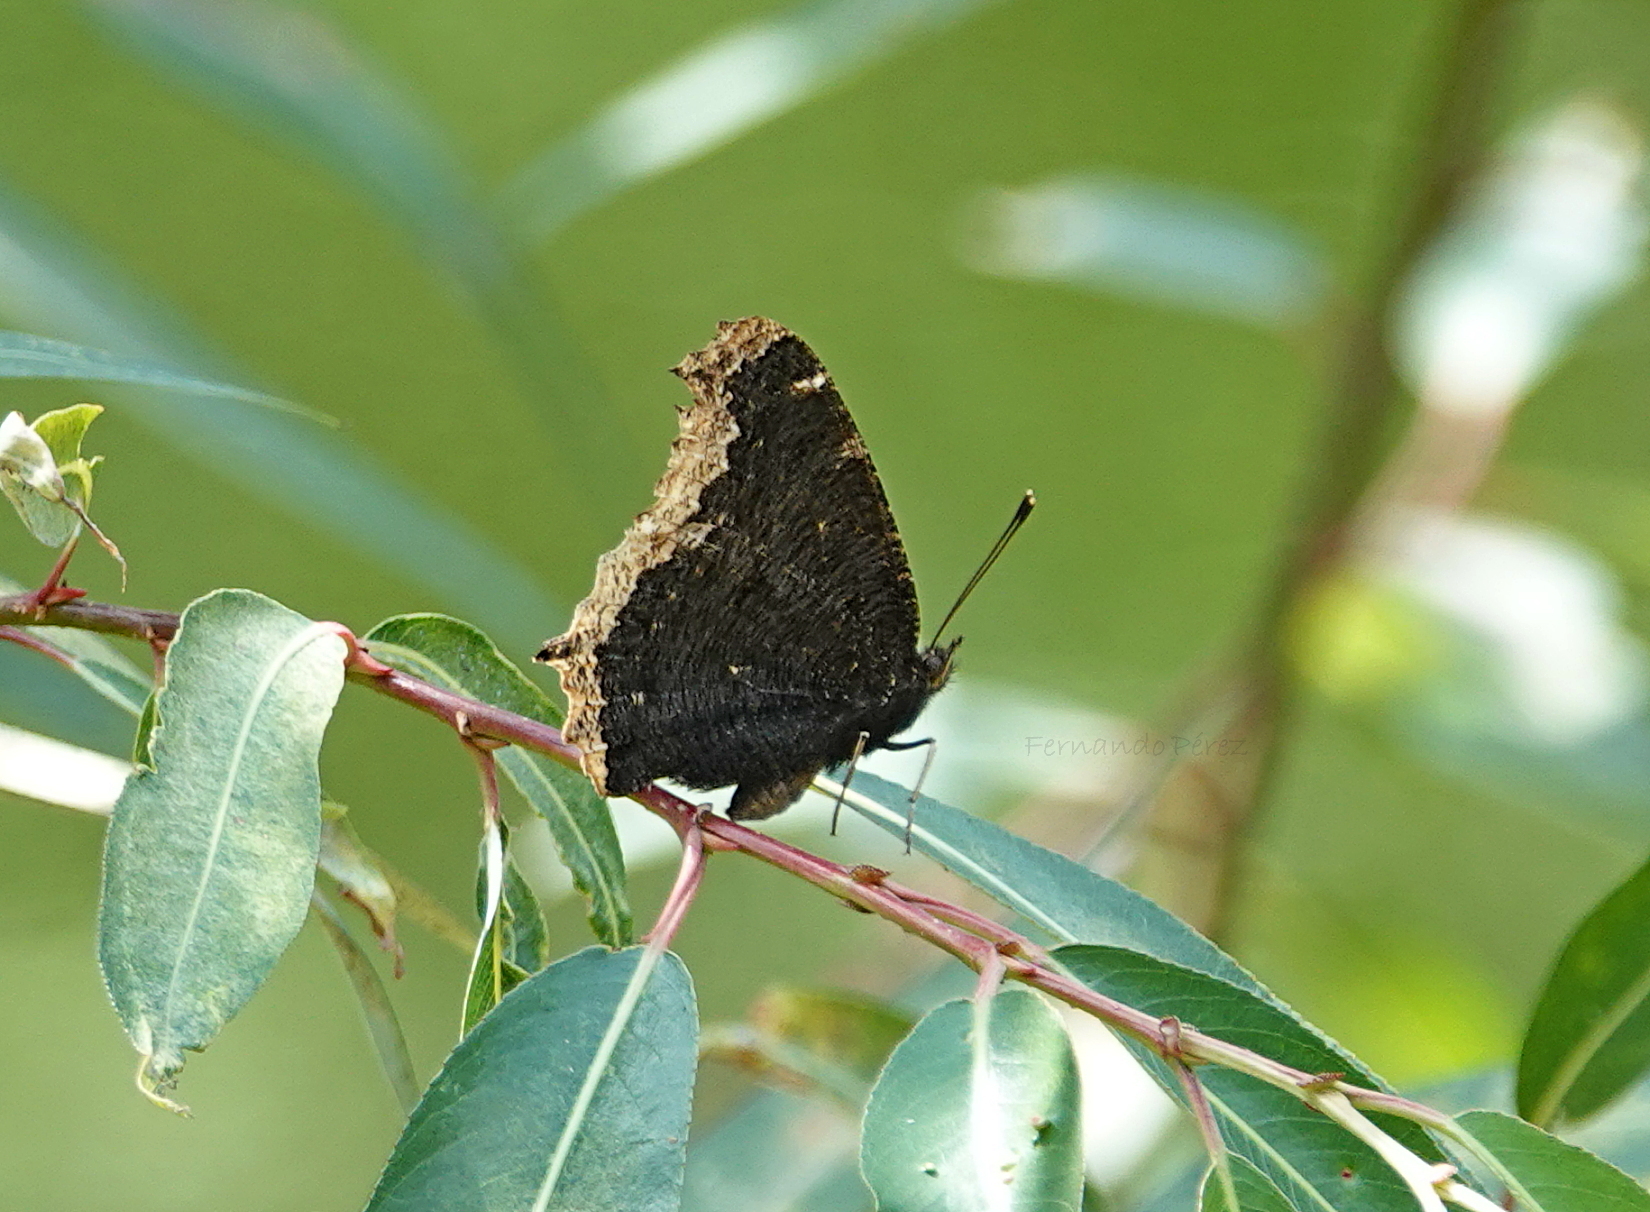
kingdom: Animalia
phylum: Arthropoda
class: Insecta
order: Lepidoptera
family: Nymphalidae
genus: Nymphalis
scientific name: Nymphalis antiopa
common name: Camberwell beauty
